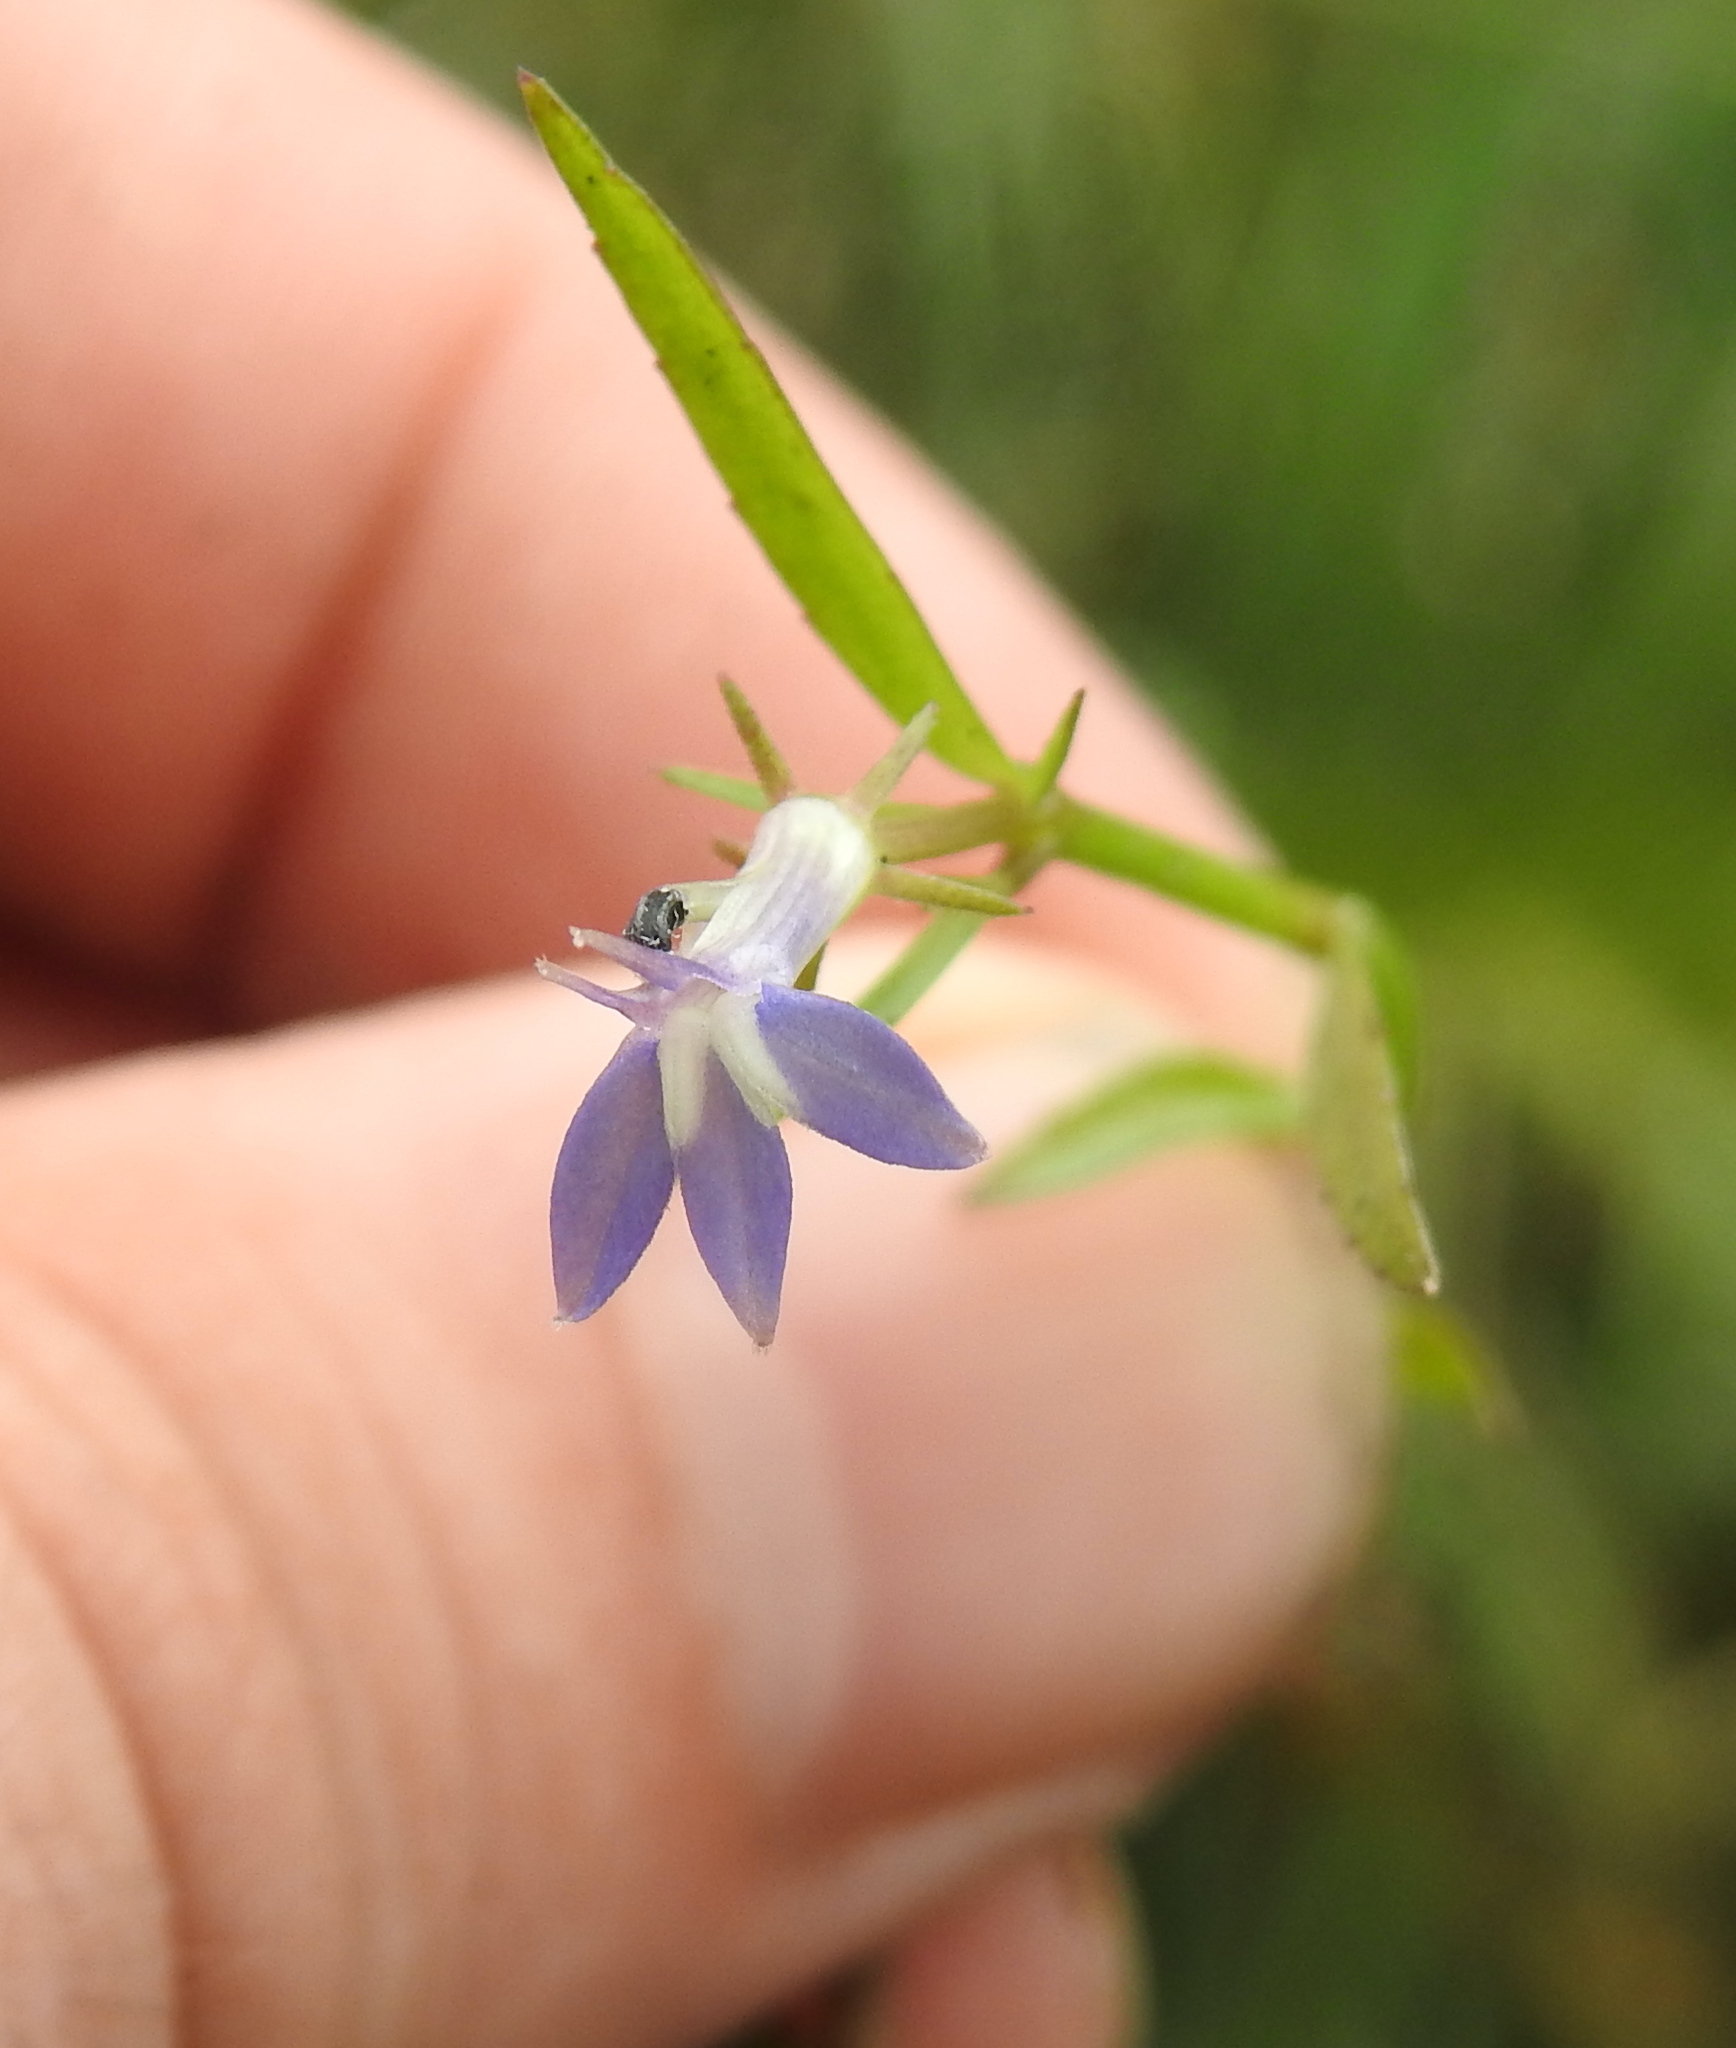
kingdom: Plantae
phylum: Tracheophyta
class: Magnoliopsida
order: Asterales
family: Campanulaceae
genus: Grammatotheca
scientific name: Grammatotheca bergiana
